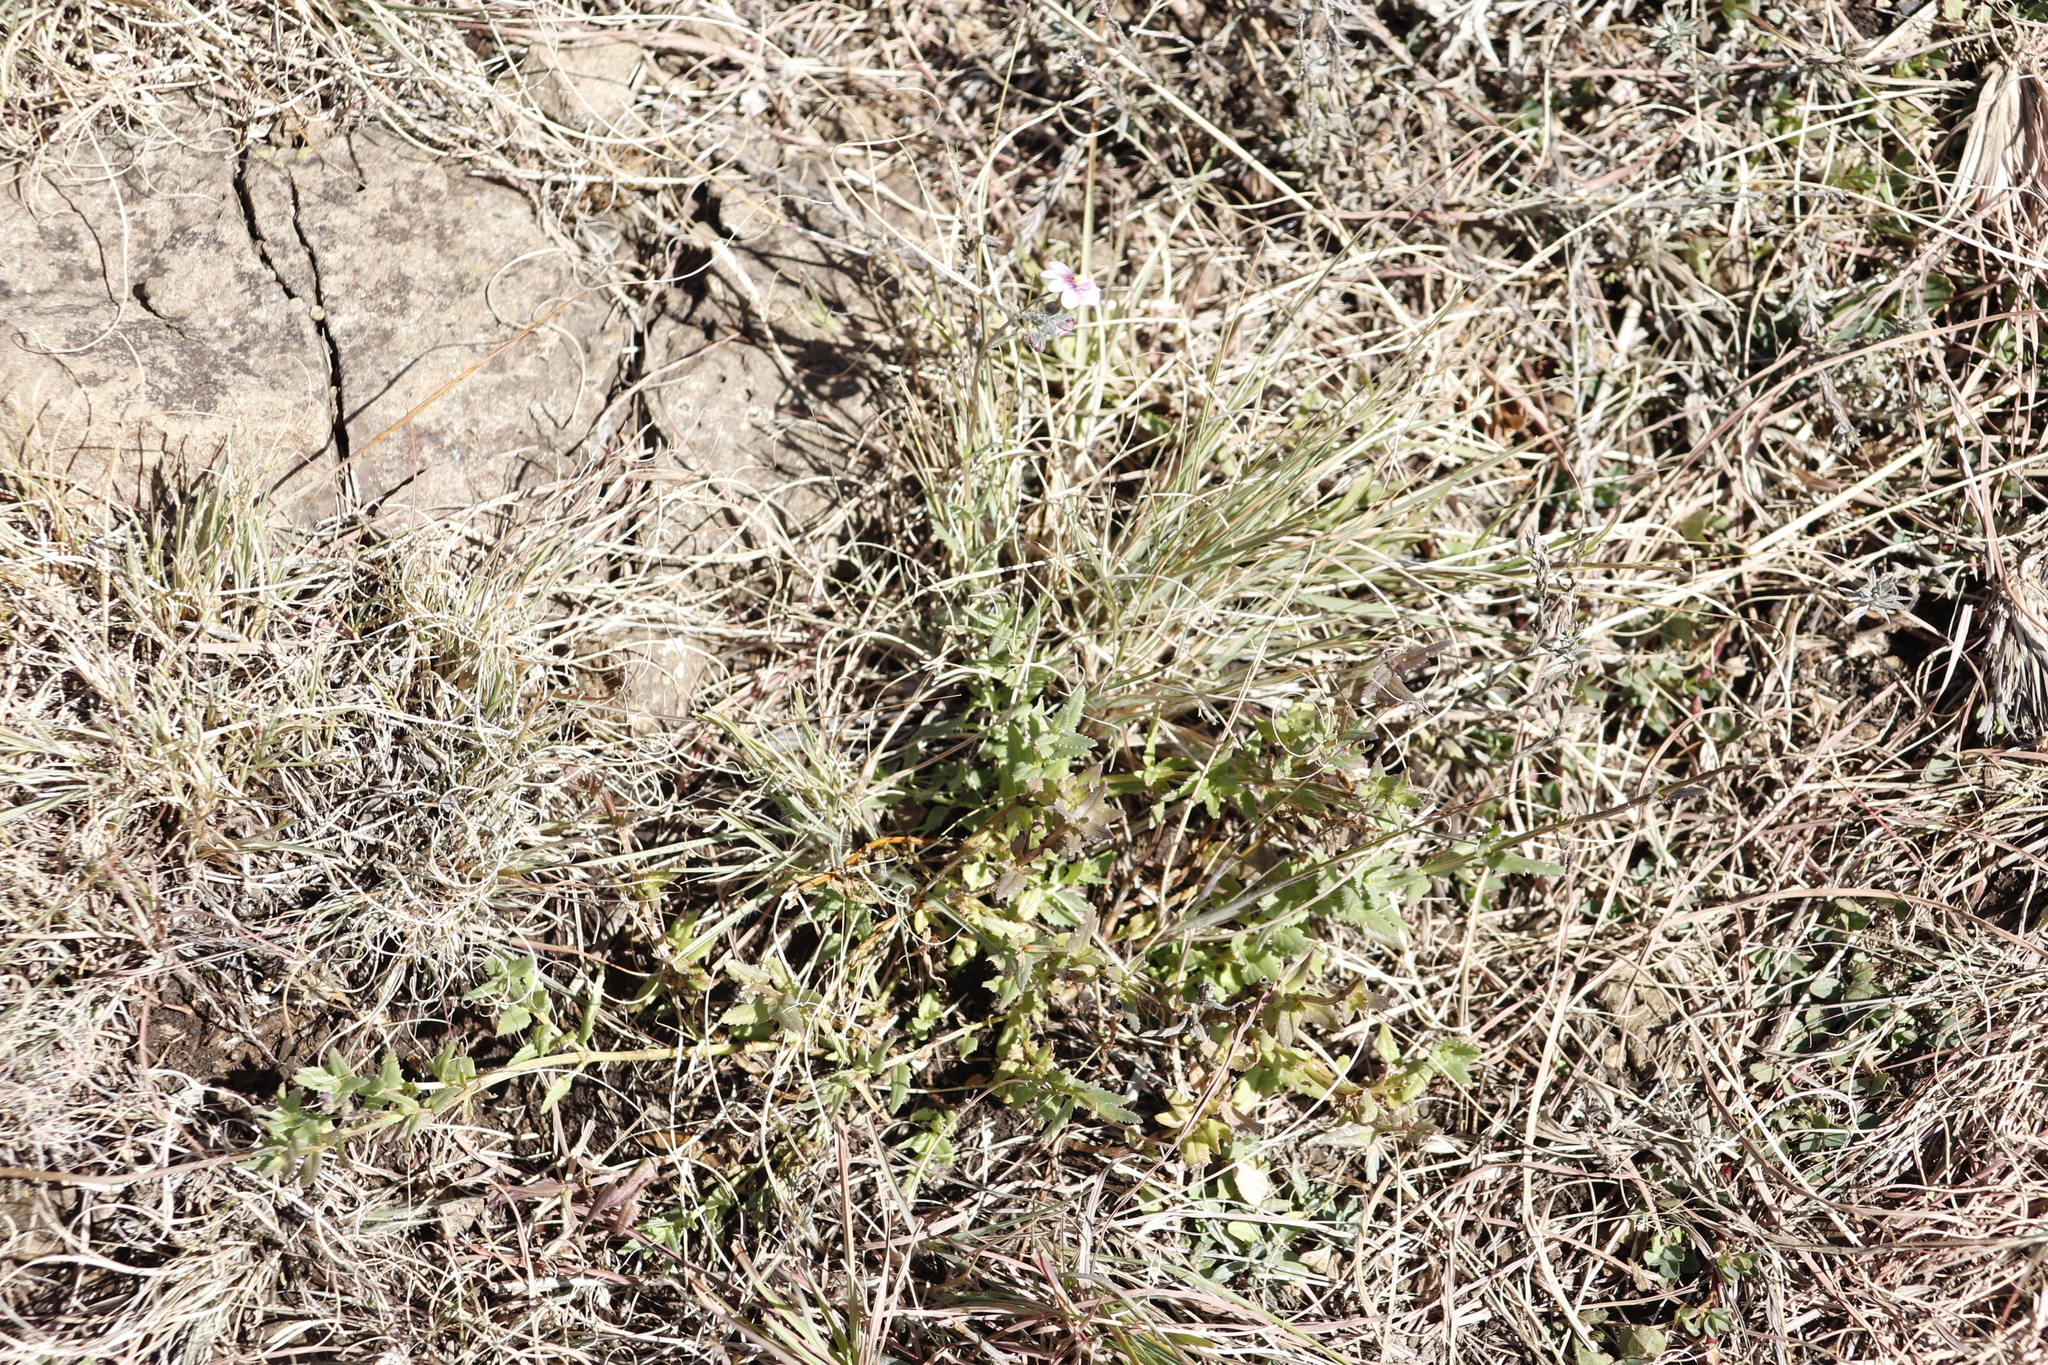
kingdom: Plantae
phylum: Tracheophyta
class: Magnoliopsida
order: Lamiales
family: Scrophulariaceae
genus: Nemesia
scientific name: Nemesia fruticans
